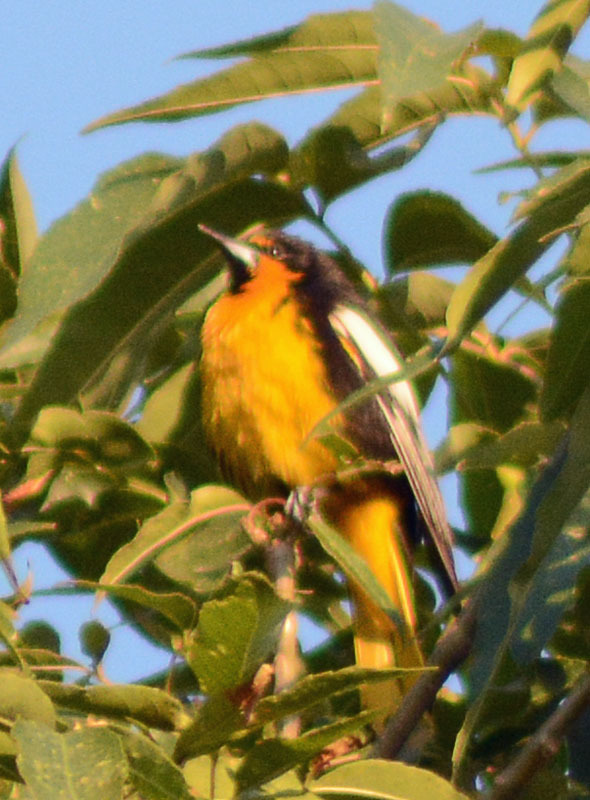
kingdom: Animalia
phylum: Chordata
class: Aves
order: Passeriformes
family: Icteridae
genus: Icterus
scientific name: Icterus abeillei
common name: Black-backed oriole
